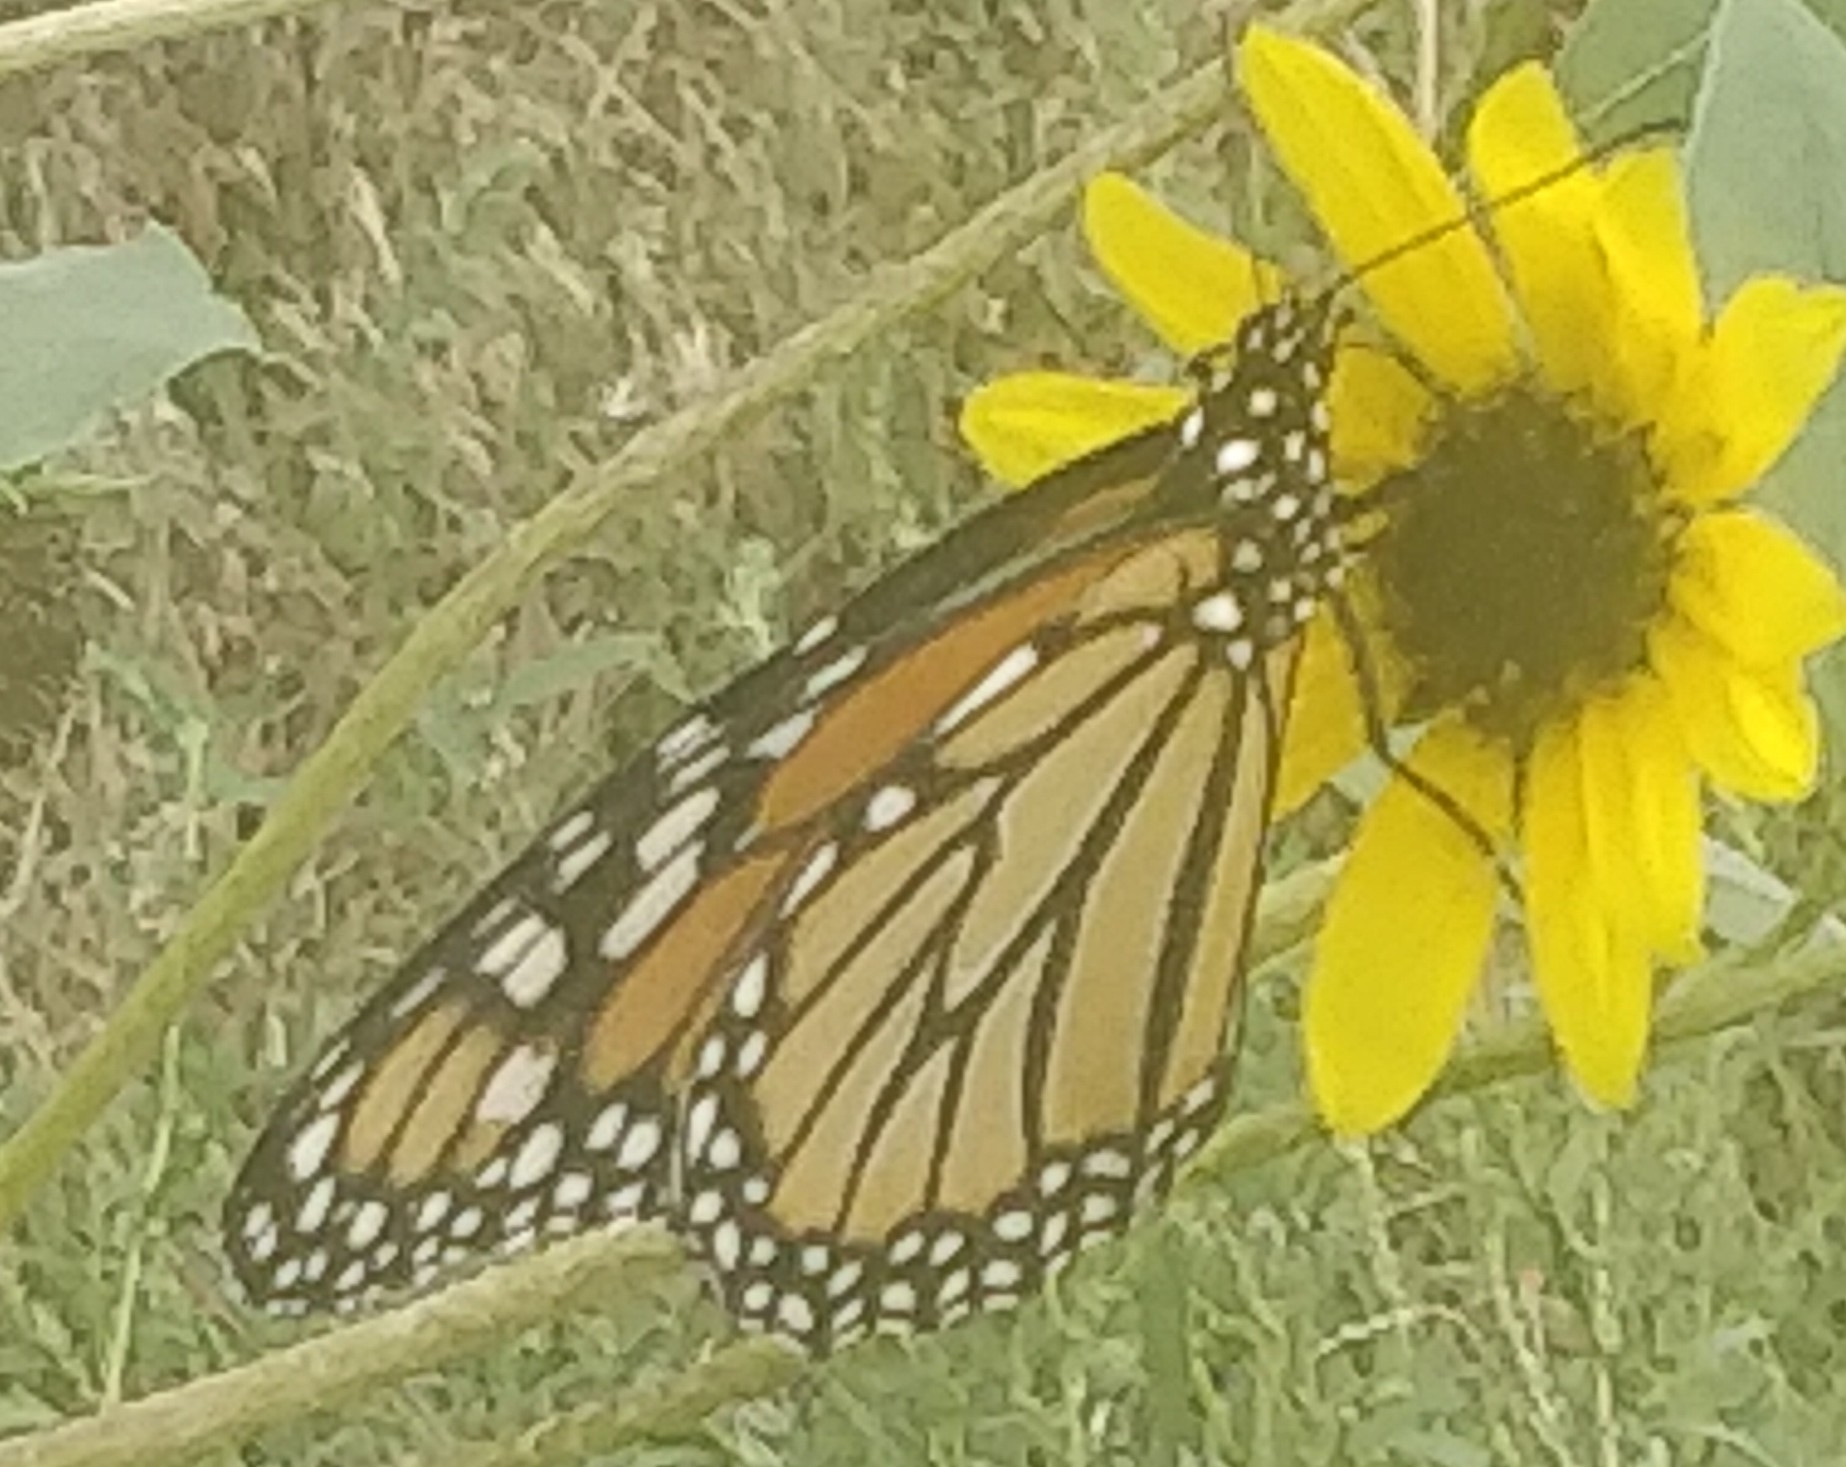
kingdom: Animalia
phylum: Arthropoda
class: Insecta
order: Lepidoptera
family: Nymphalidae
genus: Danaus
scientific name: Danaus plexippus
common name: Monarch
